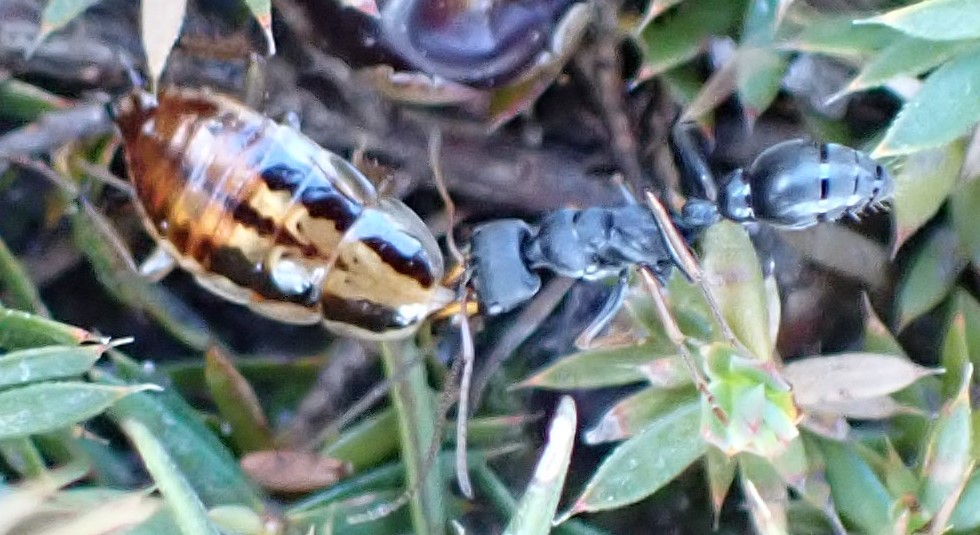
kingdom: Animalia
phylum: Arthropoda
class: Insecta
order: Hymenoptera
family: Formicidae
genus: Myrmecia
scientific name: Myrmecia pilosula
